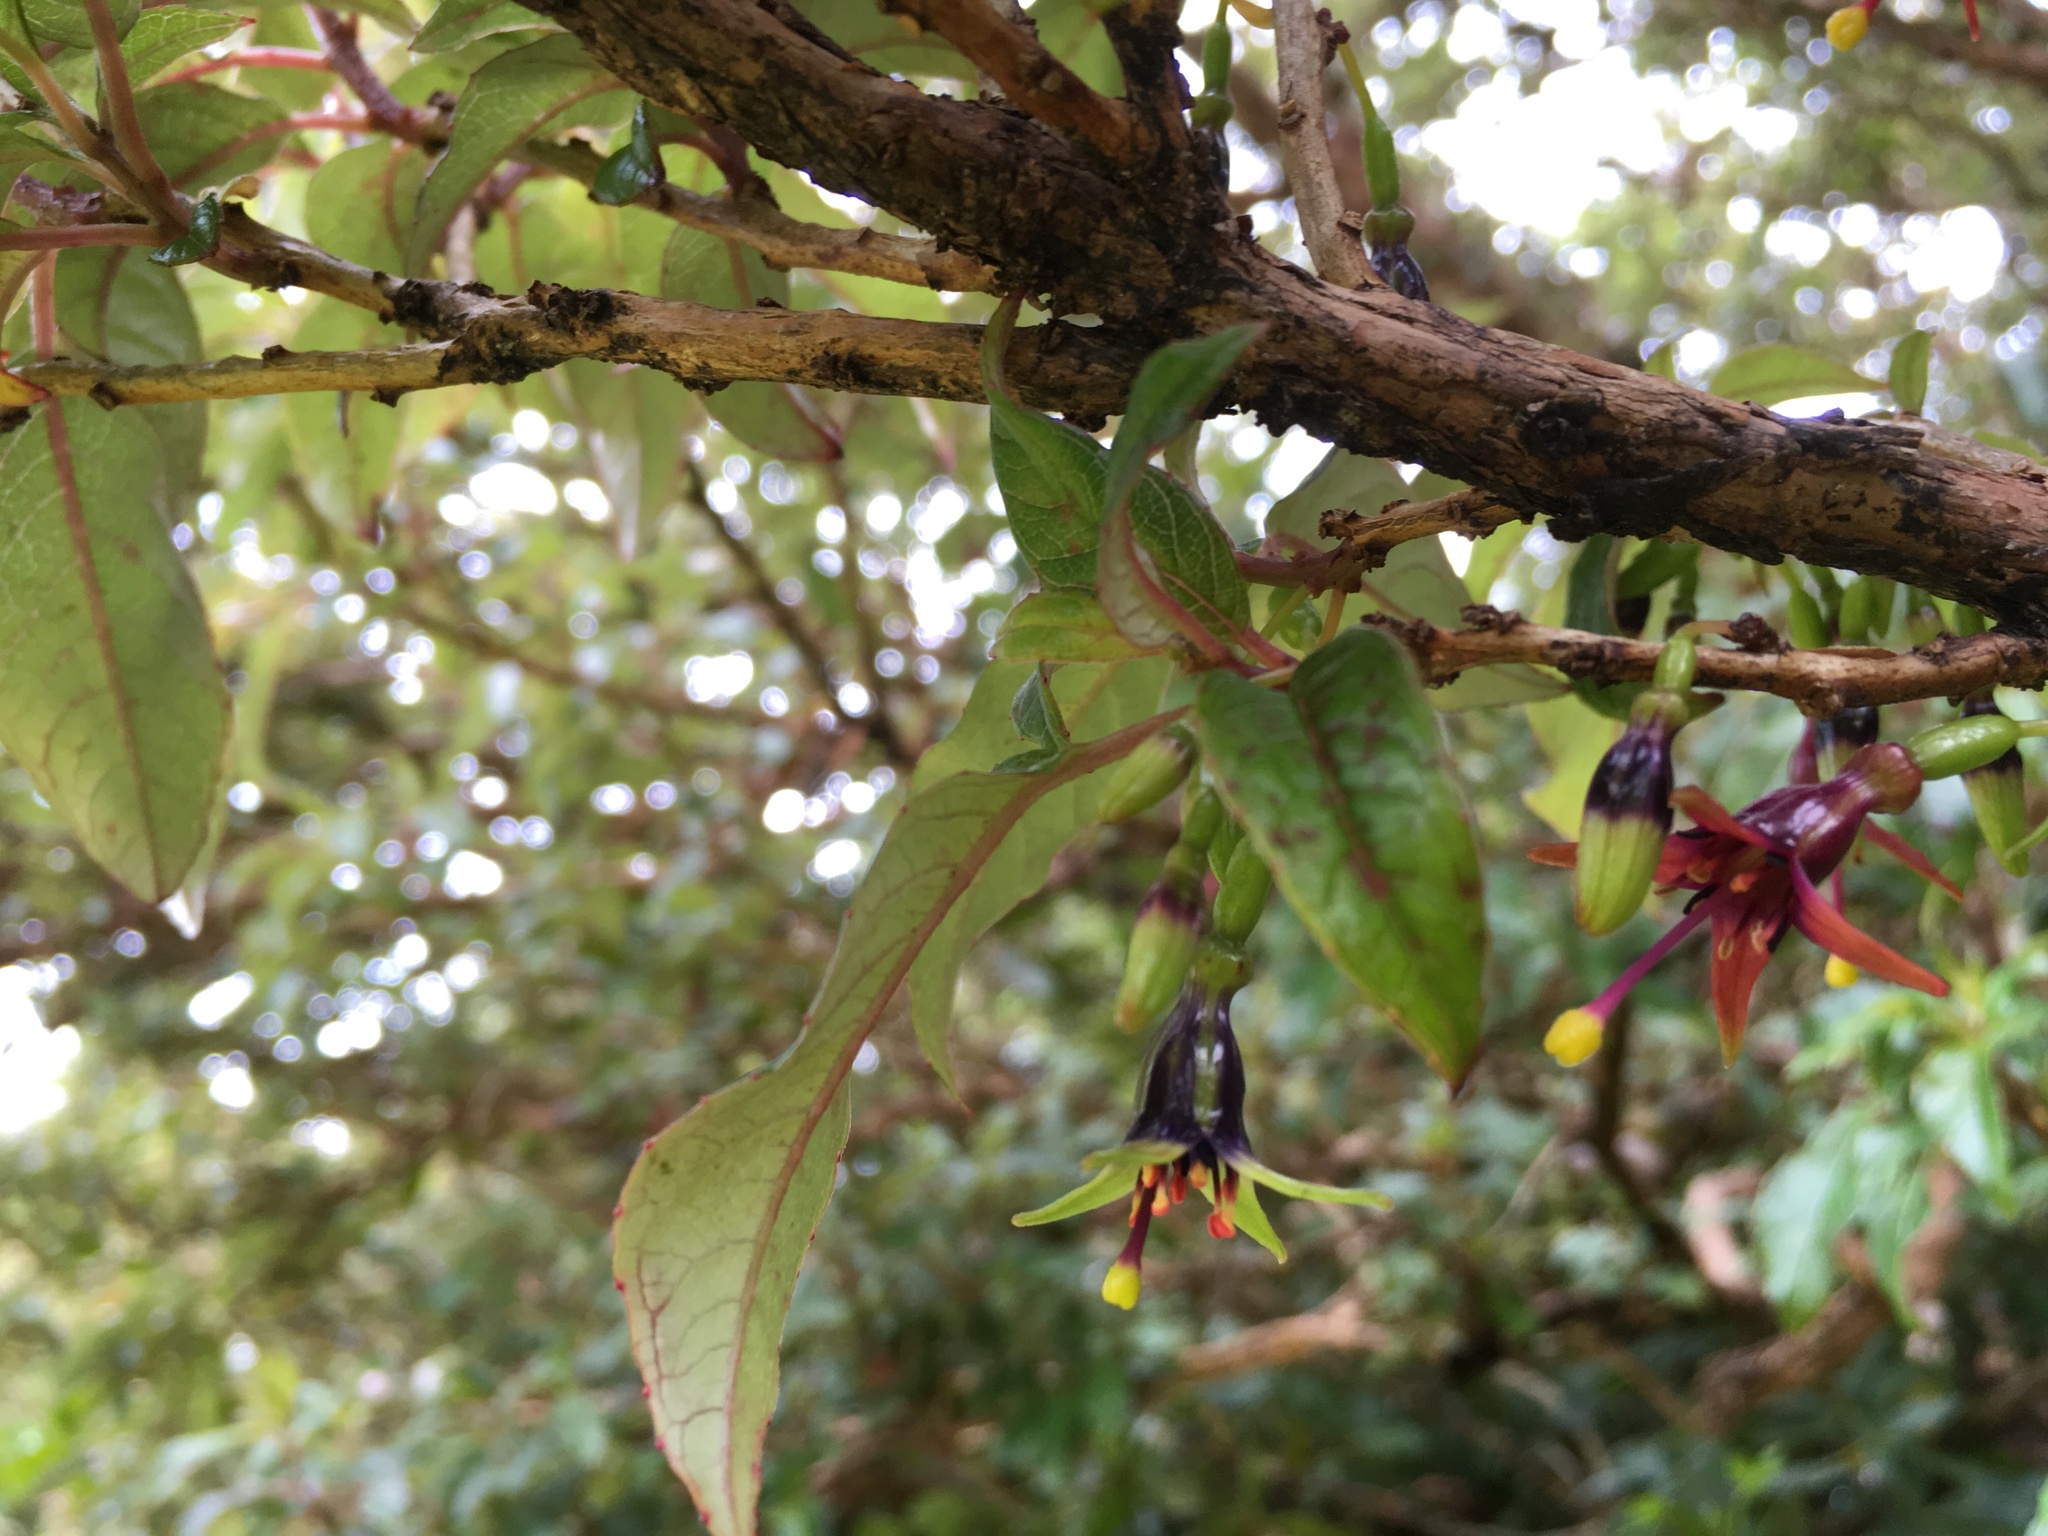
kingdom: Plantae
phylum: Tracheophyta
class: Magnoliopsida
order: Myrtales
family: Onagraceae
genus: Fuchsia
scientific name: Fuchsia excorticata
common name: Tree fuchsia
